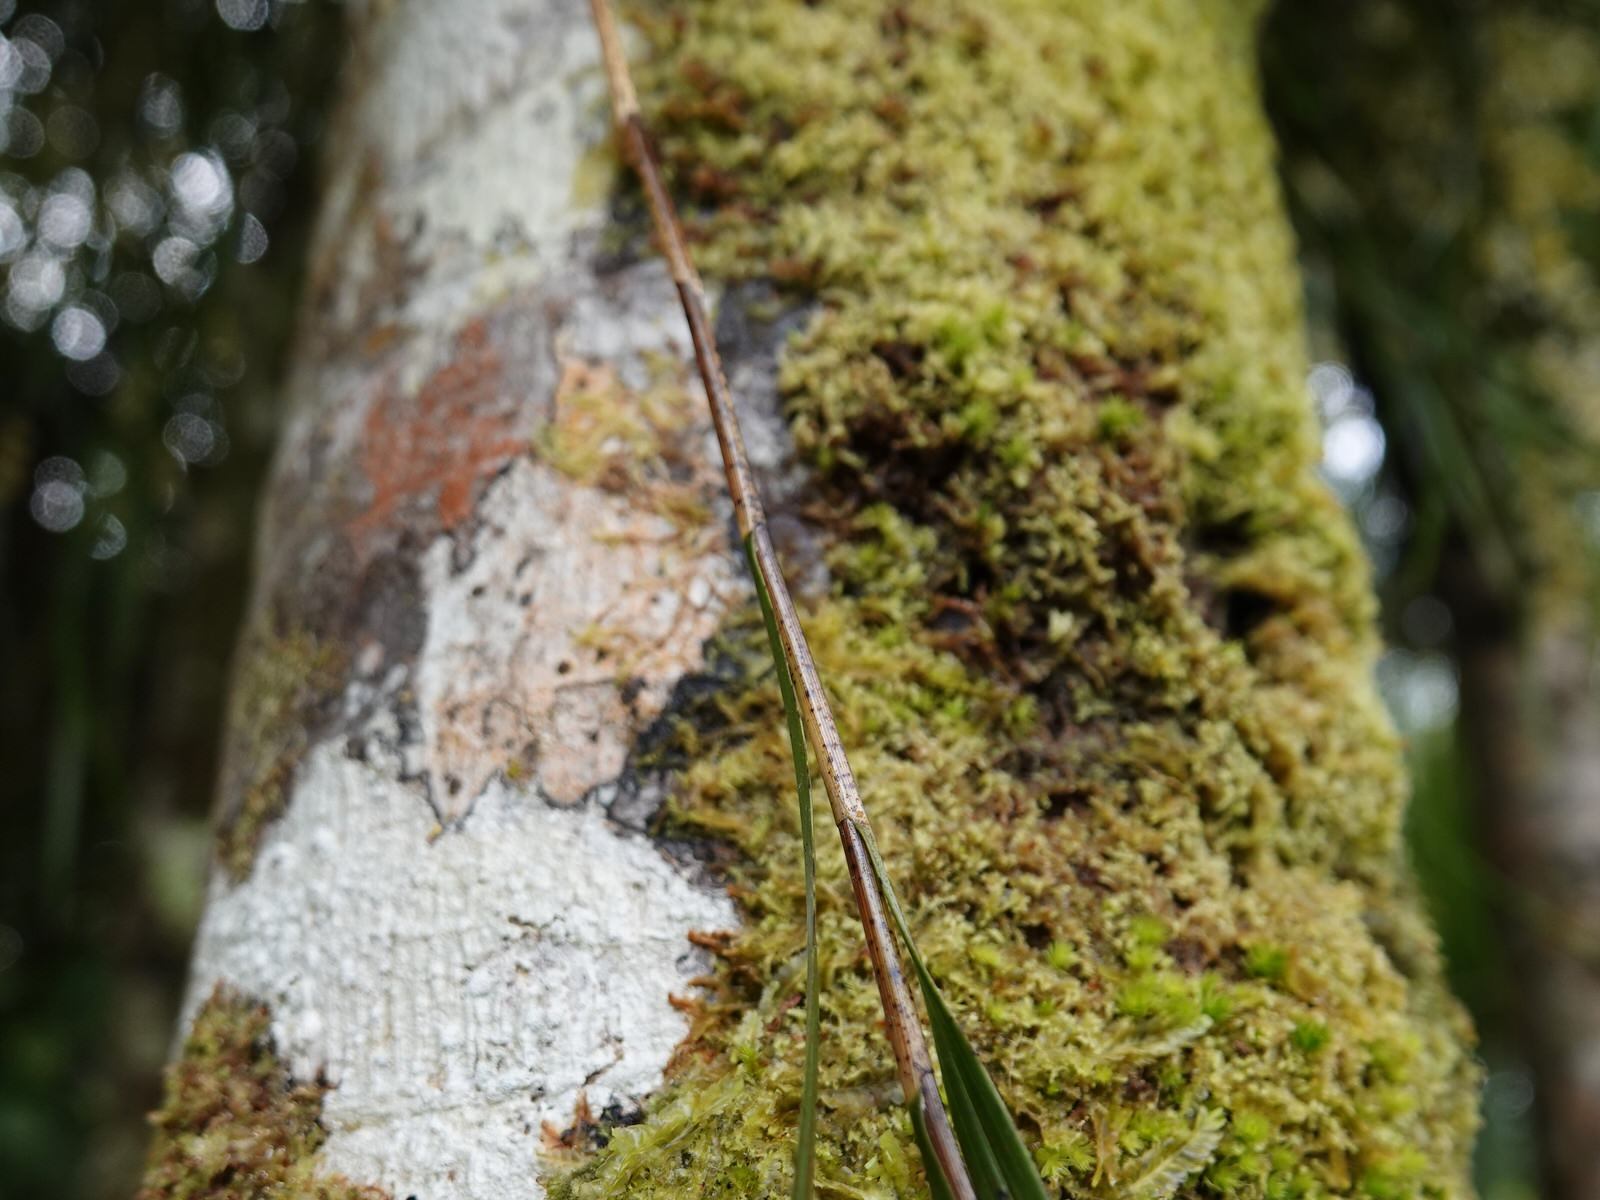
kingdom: Plantae
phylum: Tracheophyta
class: Liliopsida
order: Asparagales
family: Orchidaceae
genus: Earina
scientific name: Earina mucronata
